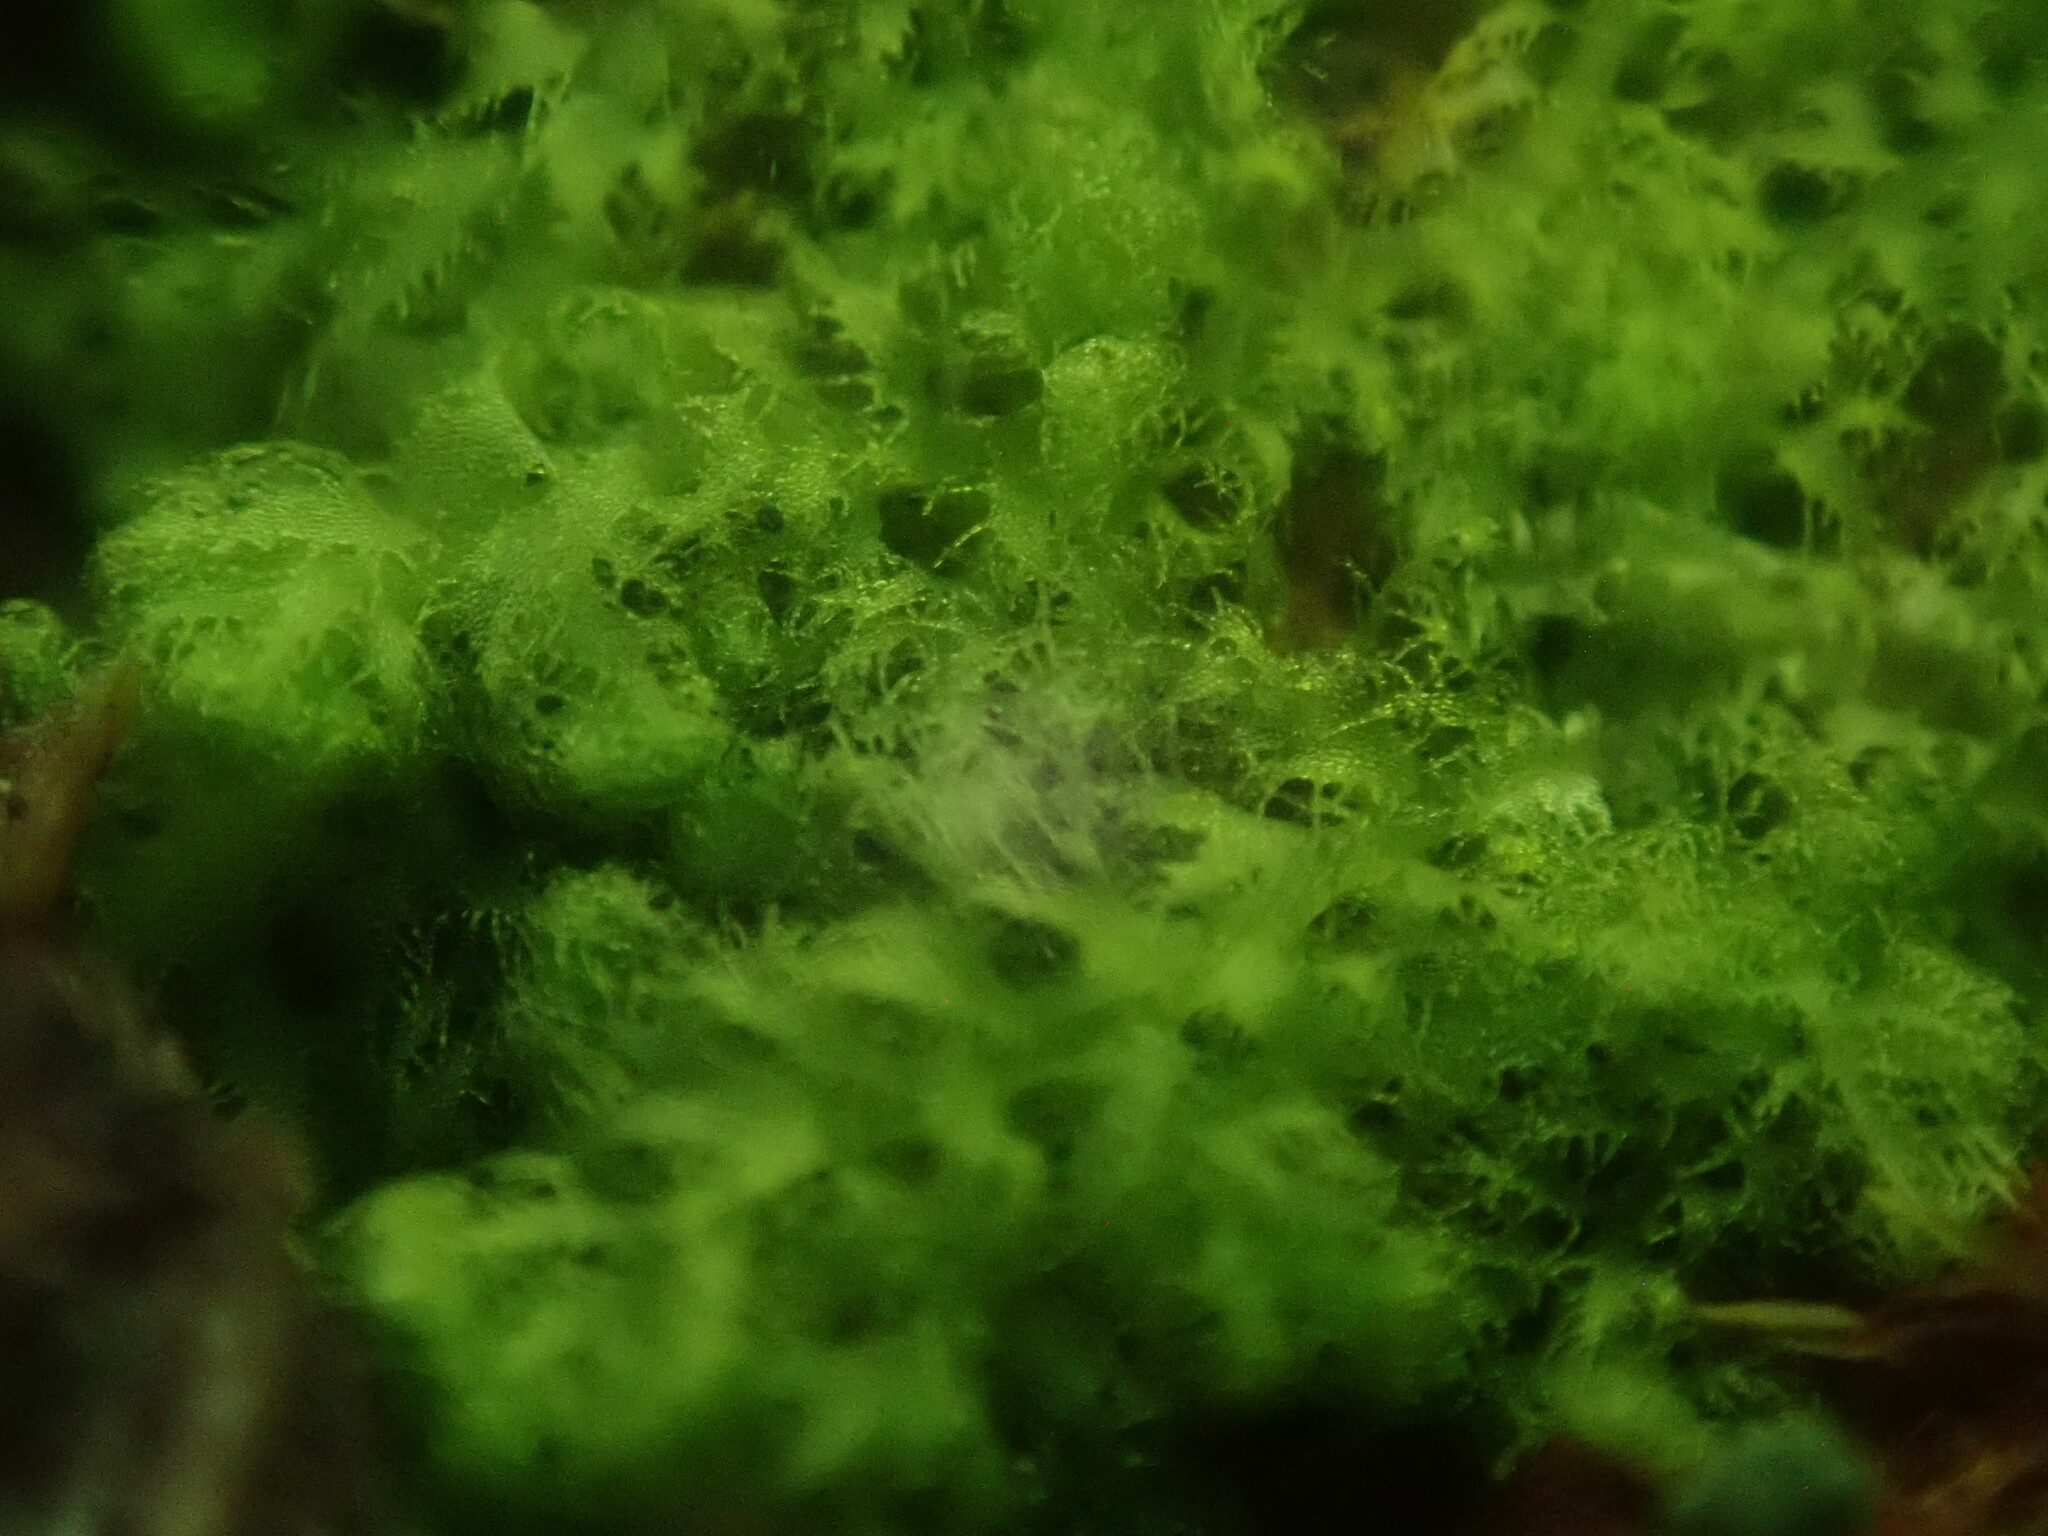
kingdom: Plantae
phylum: Marchantiophyta
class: Jungermanniopsida
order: Ptilidiales
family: Ptilidiaceae
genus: Ptilidium
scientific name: Ptilidium pulcherrimum
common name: Tree fringewort
